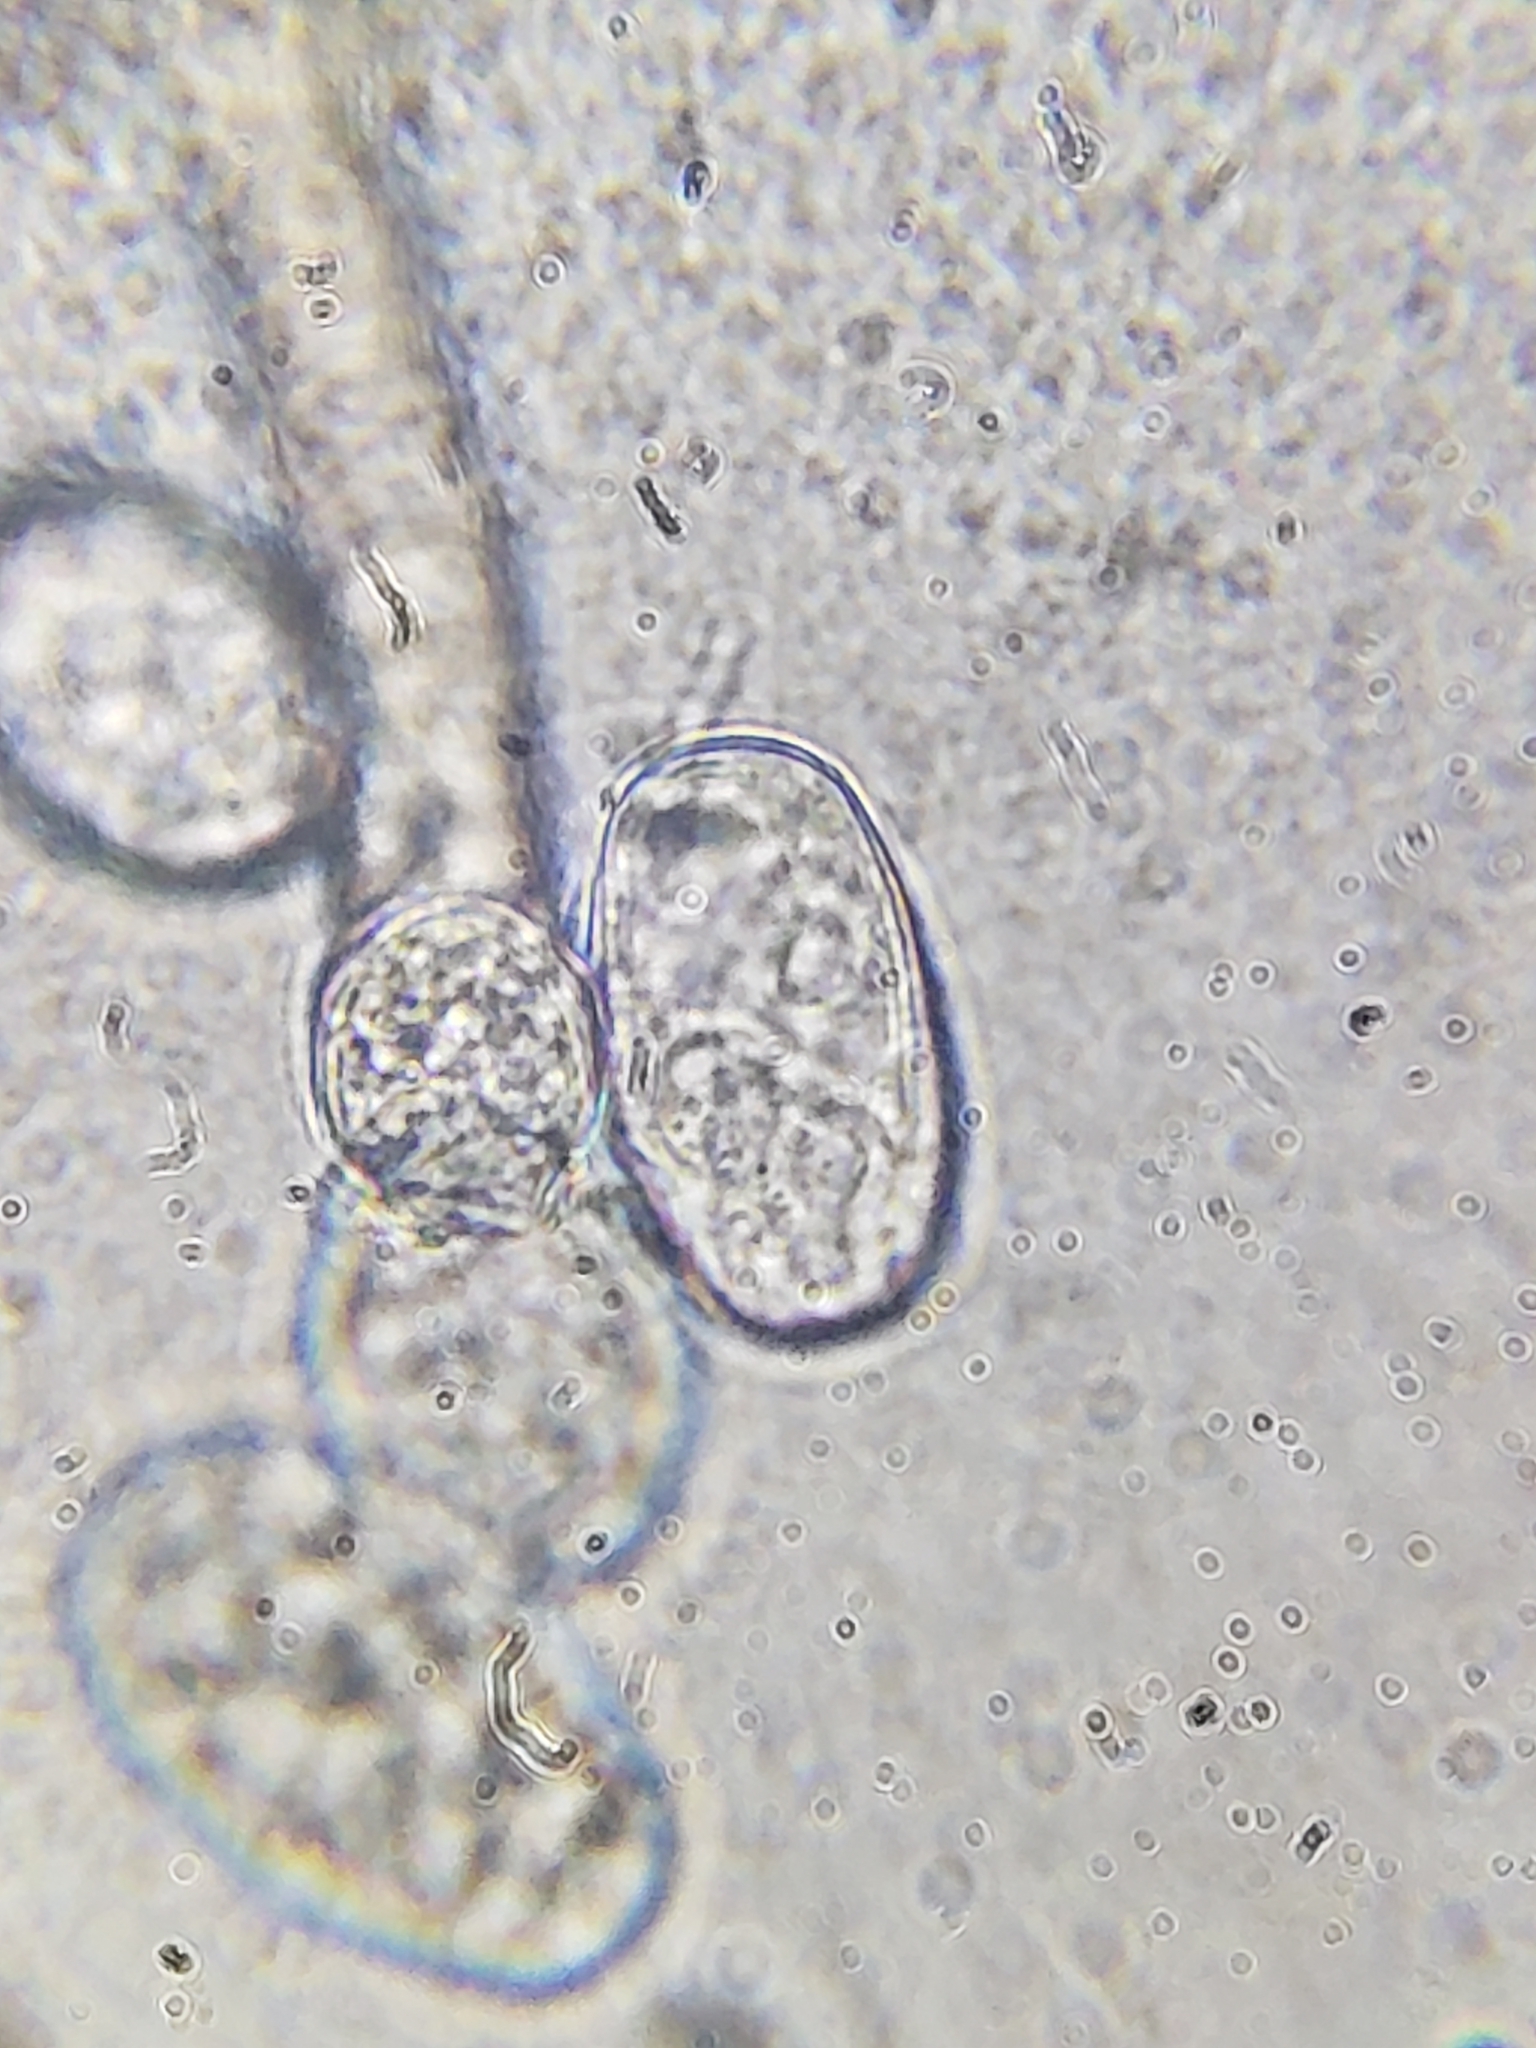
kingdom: Fungi
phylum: Ascomycota
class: Leotiomycetes
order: Helotiales
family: Erysiphaceae
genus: Podosphaera
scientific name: Podosphaera solanacearum
